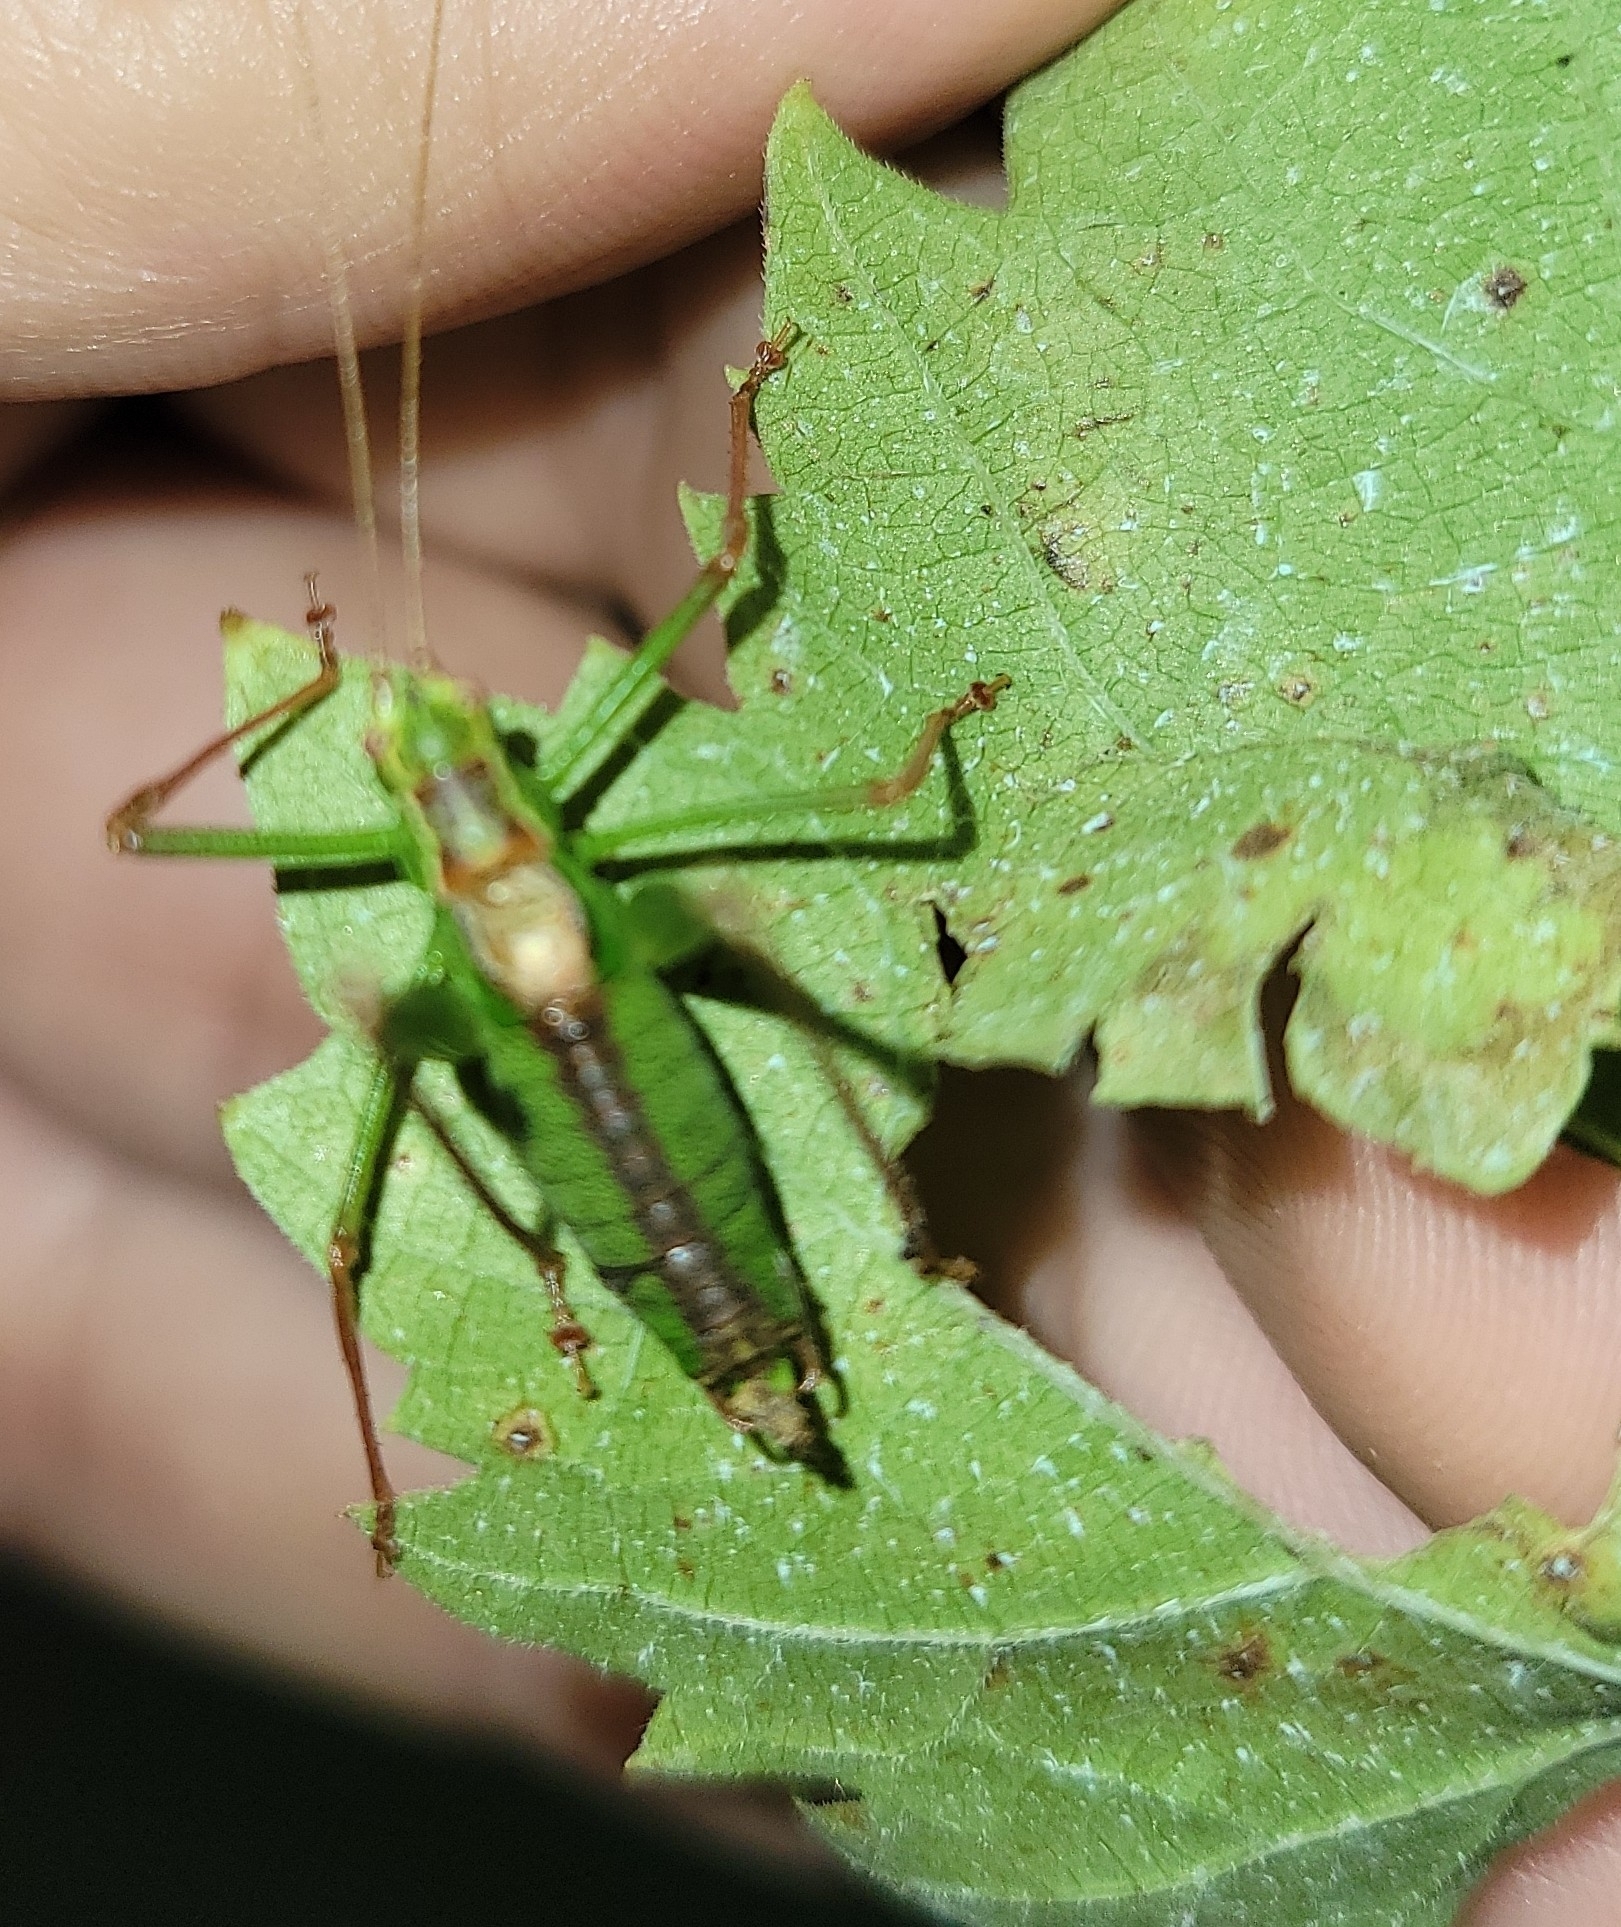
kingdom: Animalia
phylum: Arthropoda
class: Insecta
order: Orthoptera
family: Tettigoniidae
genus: Leptophyes
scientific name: Leptophyes punctatissima
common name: Speckled bush-cricket
